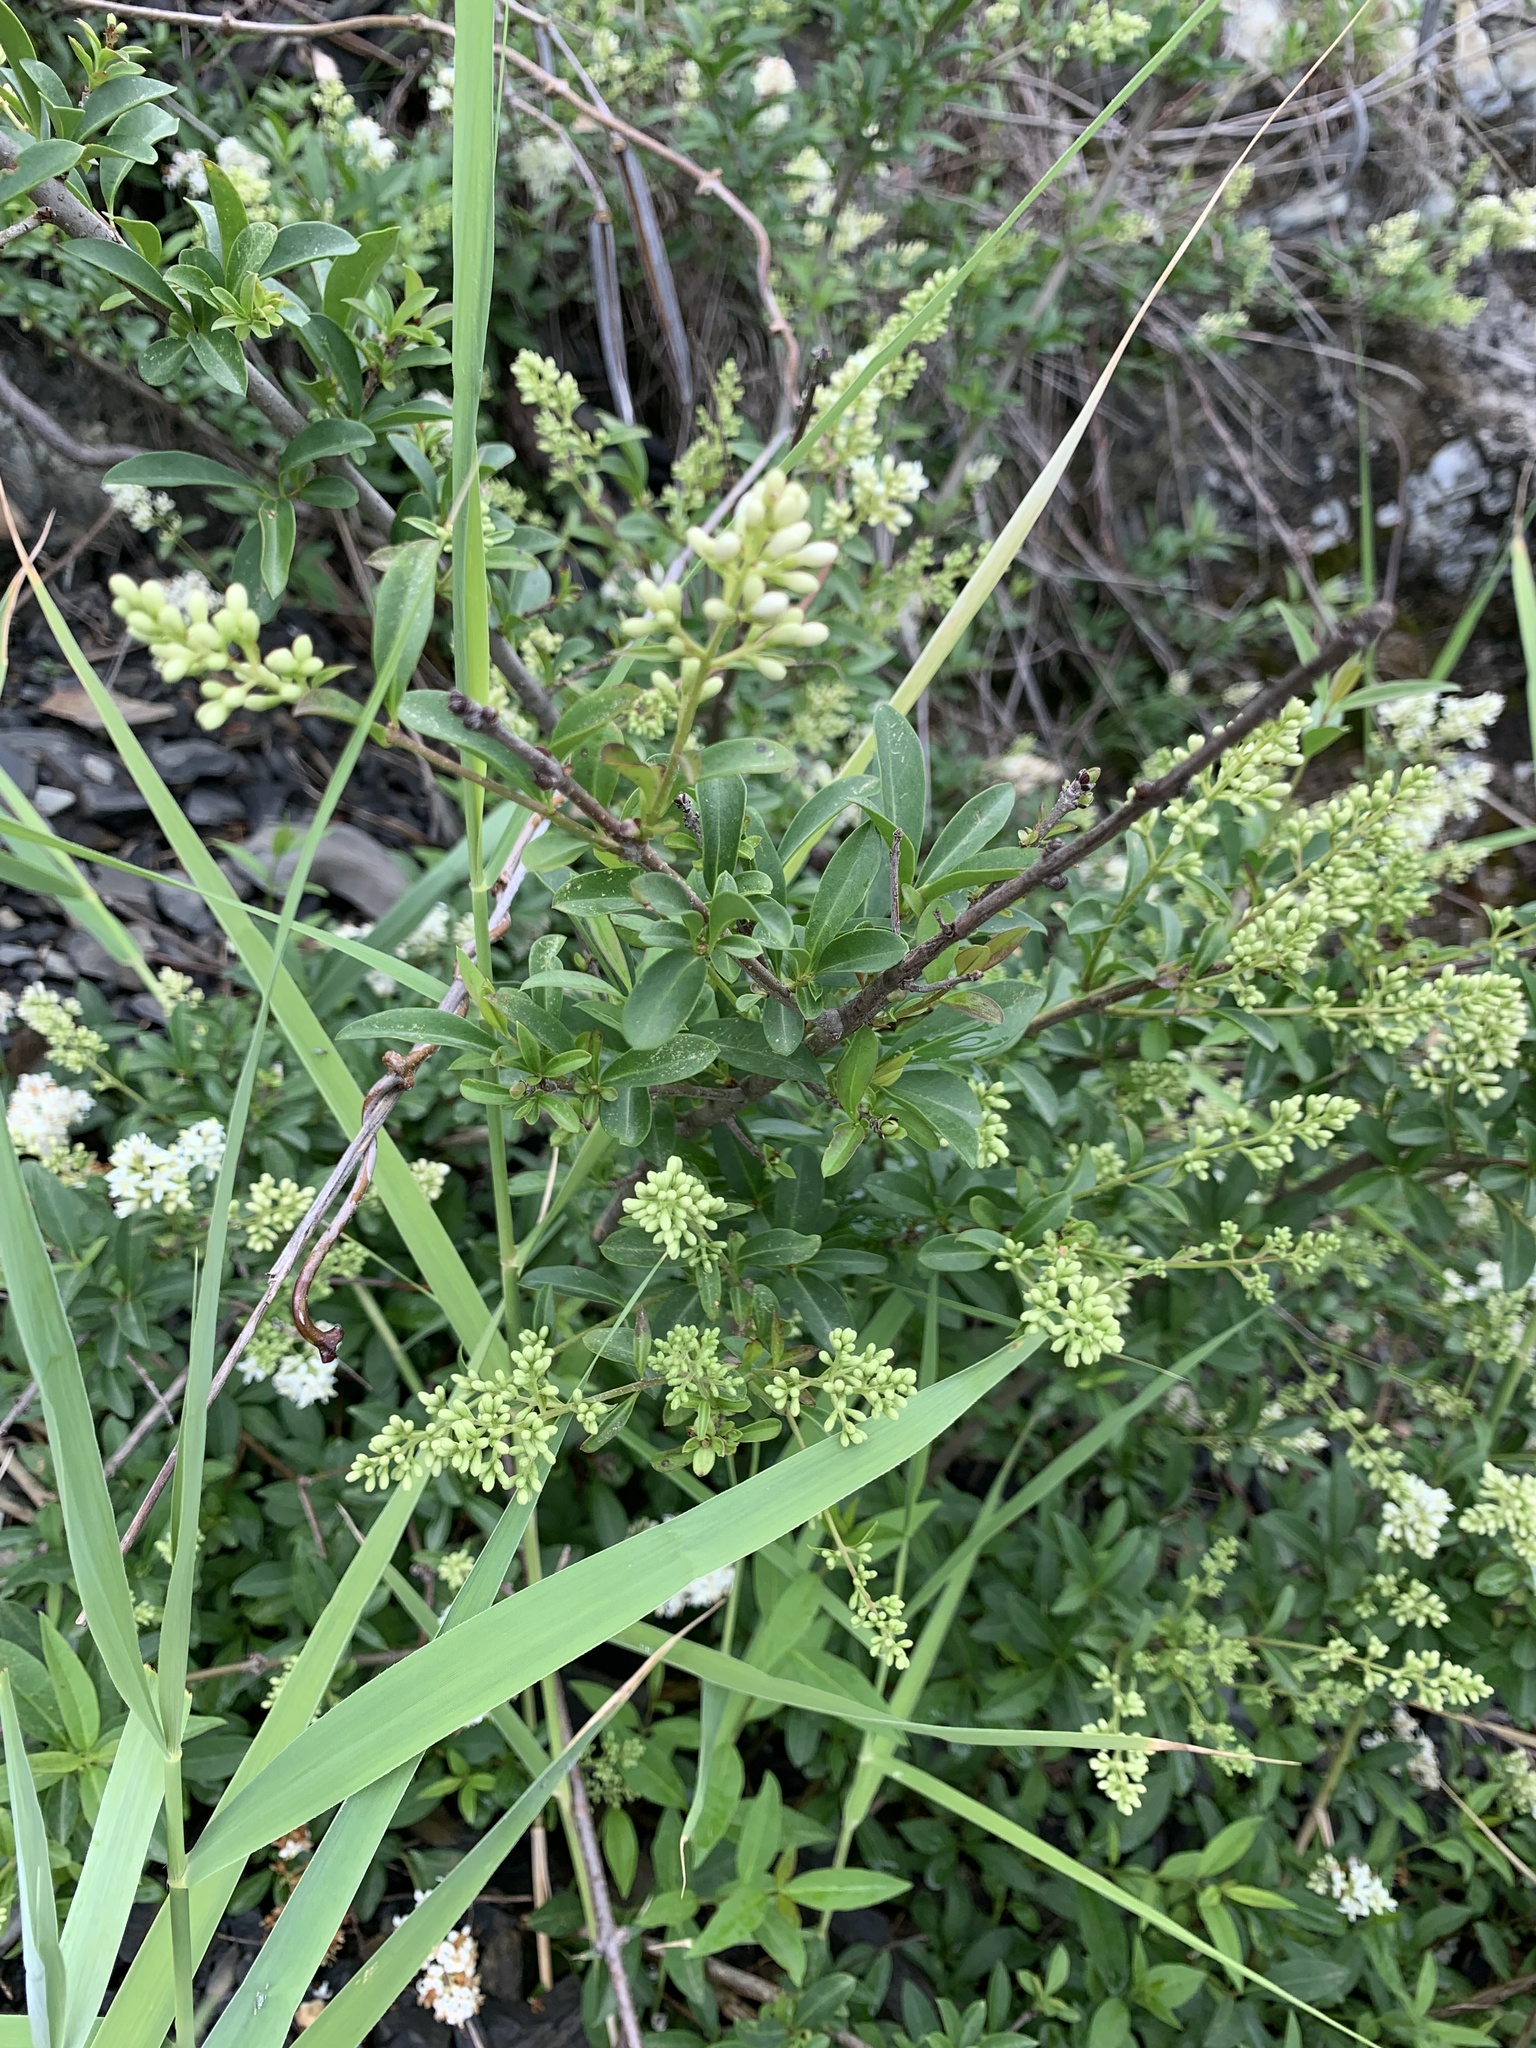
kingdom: Plantae
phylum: Tracheophyta
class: Magnoliopsida
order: Lamiales
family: Oleaceae
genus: Ligustrum
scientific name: Ligustrum vulgare
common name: Wild privet
